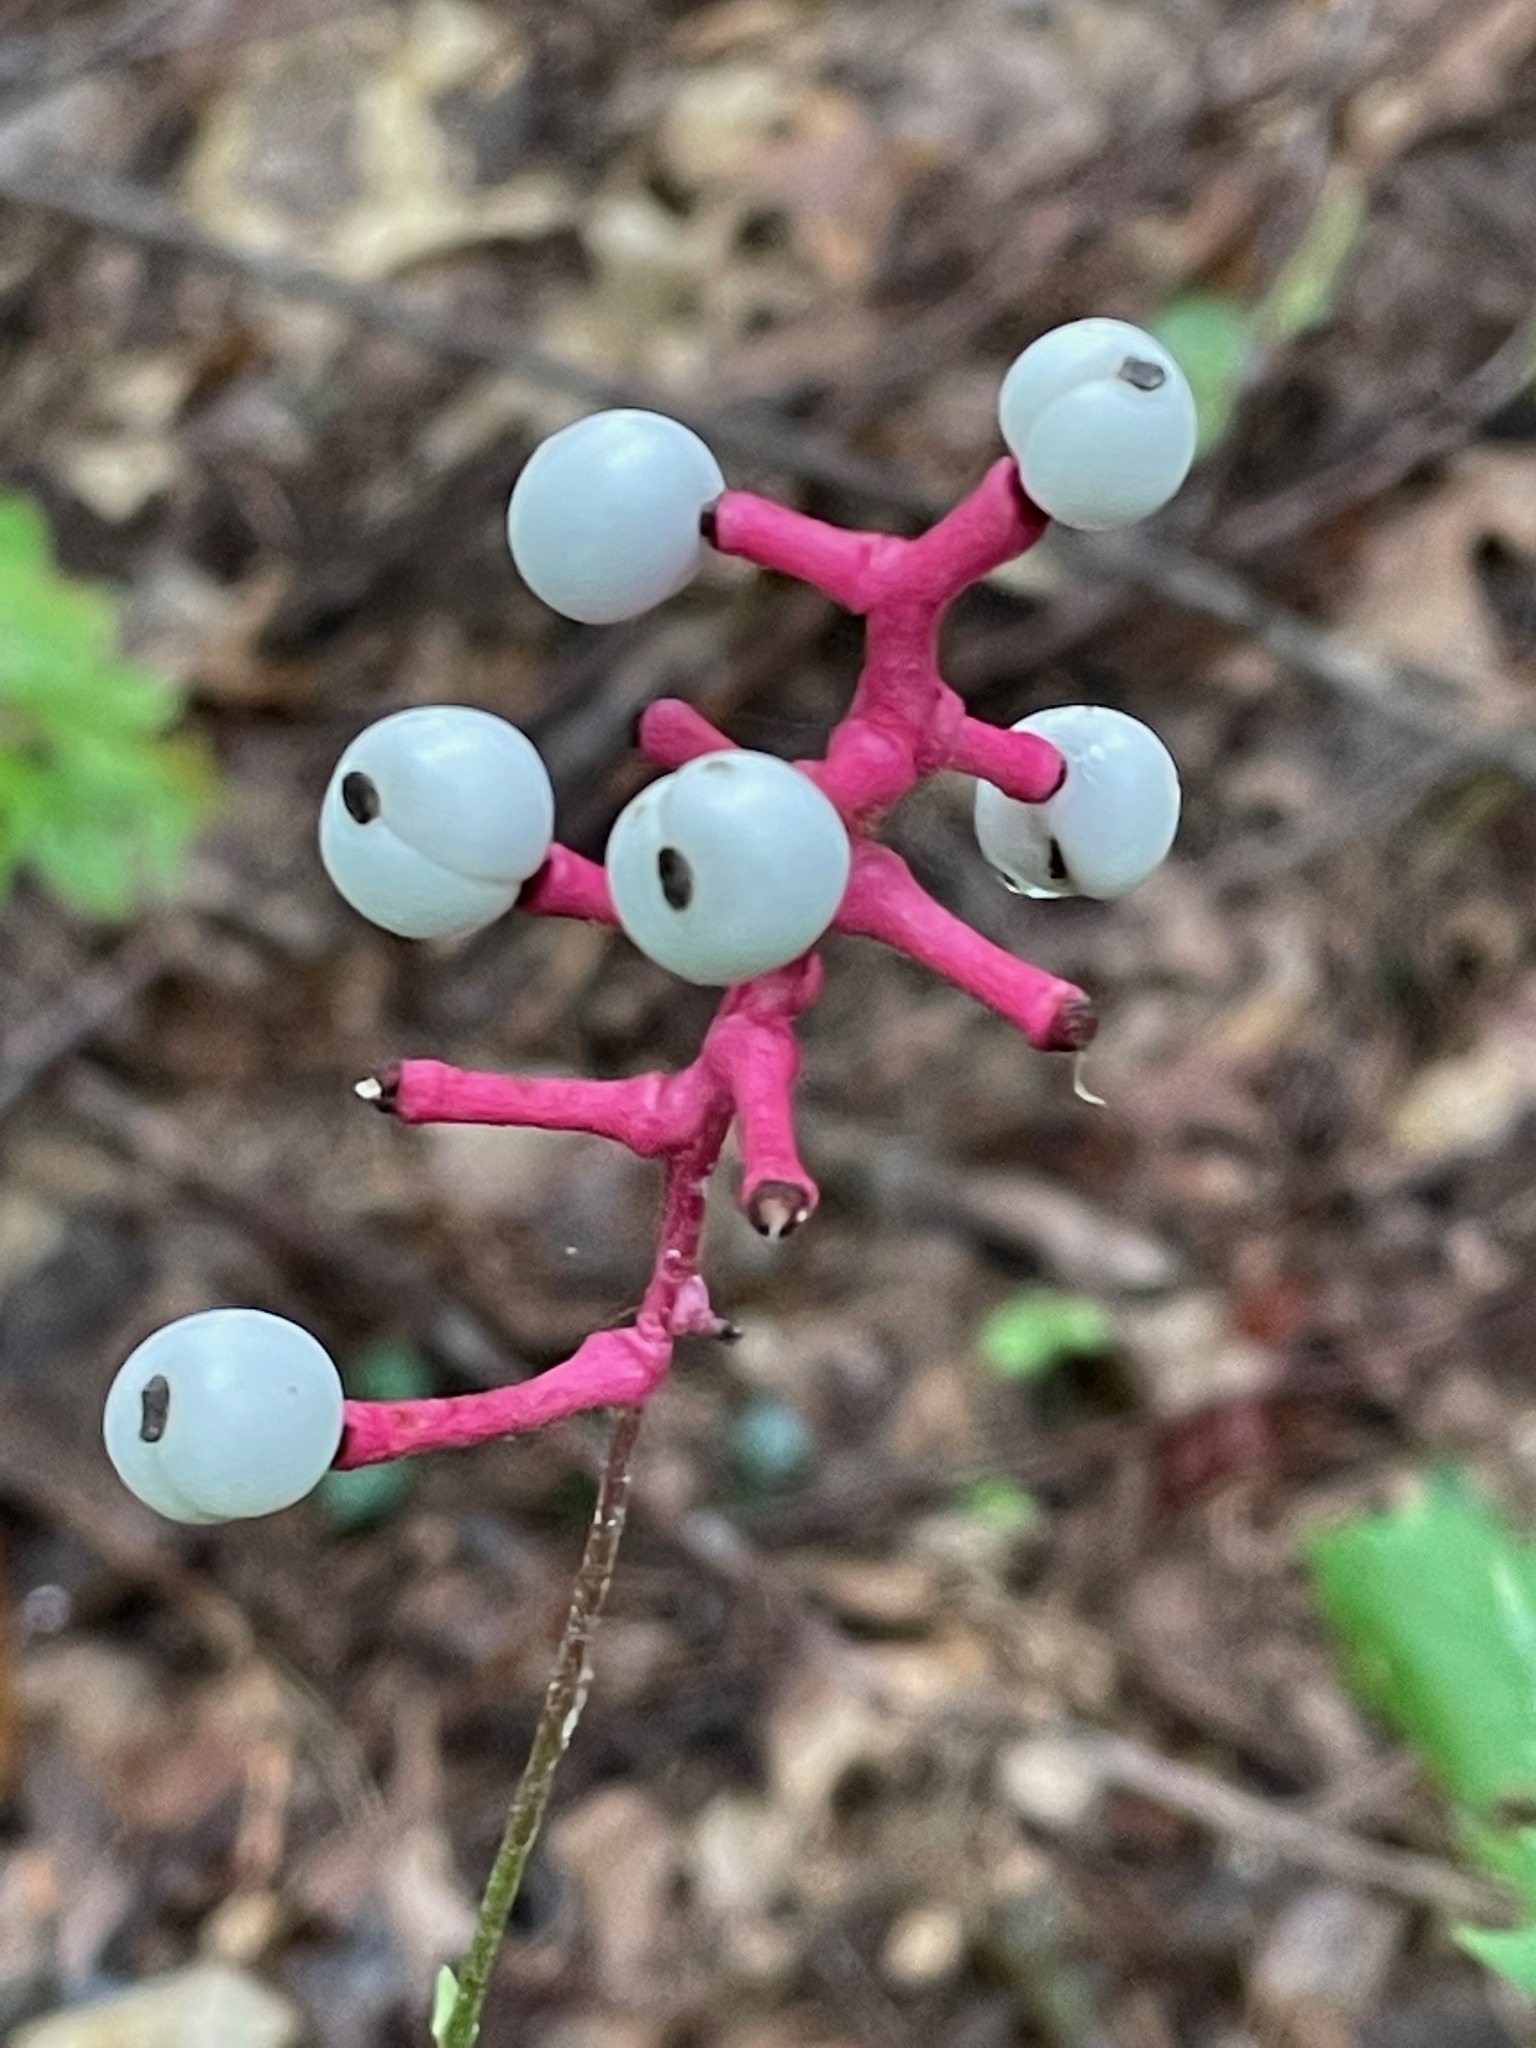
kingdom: Plantae
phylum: Tracheophyta
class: Magnoliopsida
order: Ranunculales
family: Ranunculaceae
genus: Actaea
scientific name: Actaea pachypoda
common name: Doll's-eyes
